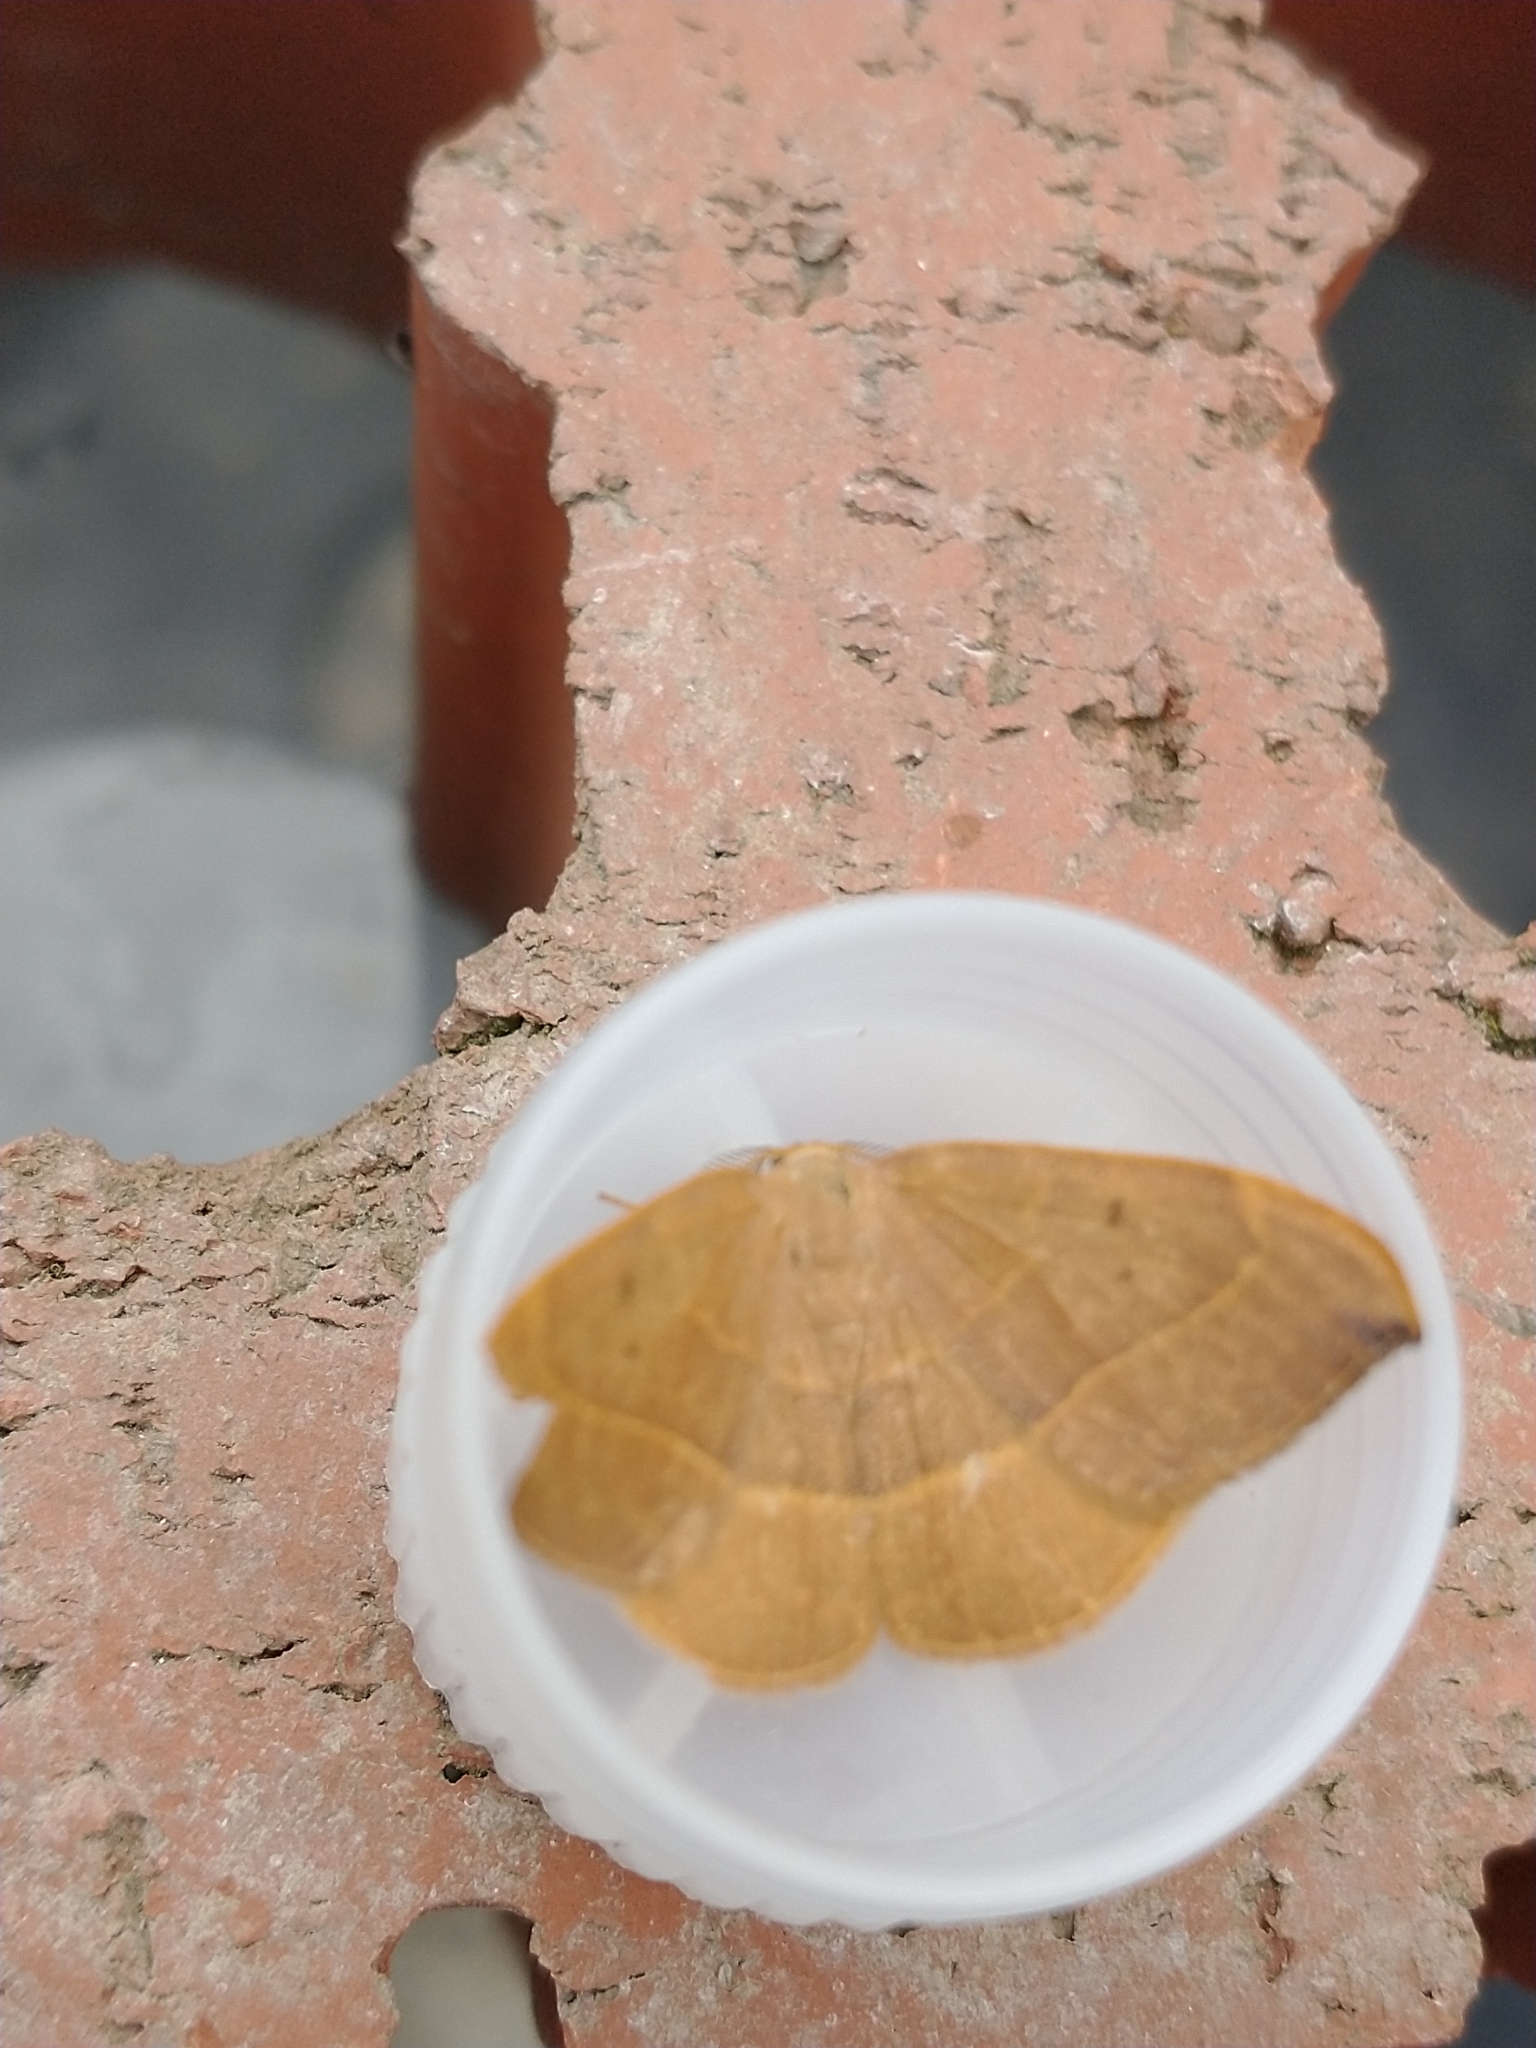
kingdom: Animalia
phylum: Arthropoda
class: Insecta
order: Lepidoptera
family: Drepanidae
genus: Watsonalla
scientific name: Watsonalla binaria
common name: Oak hook-tip
